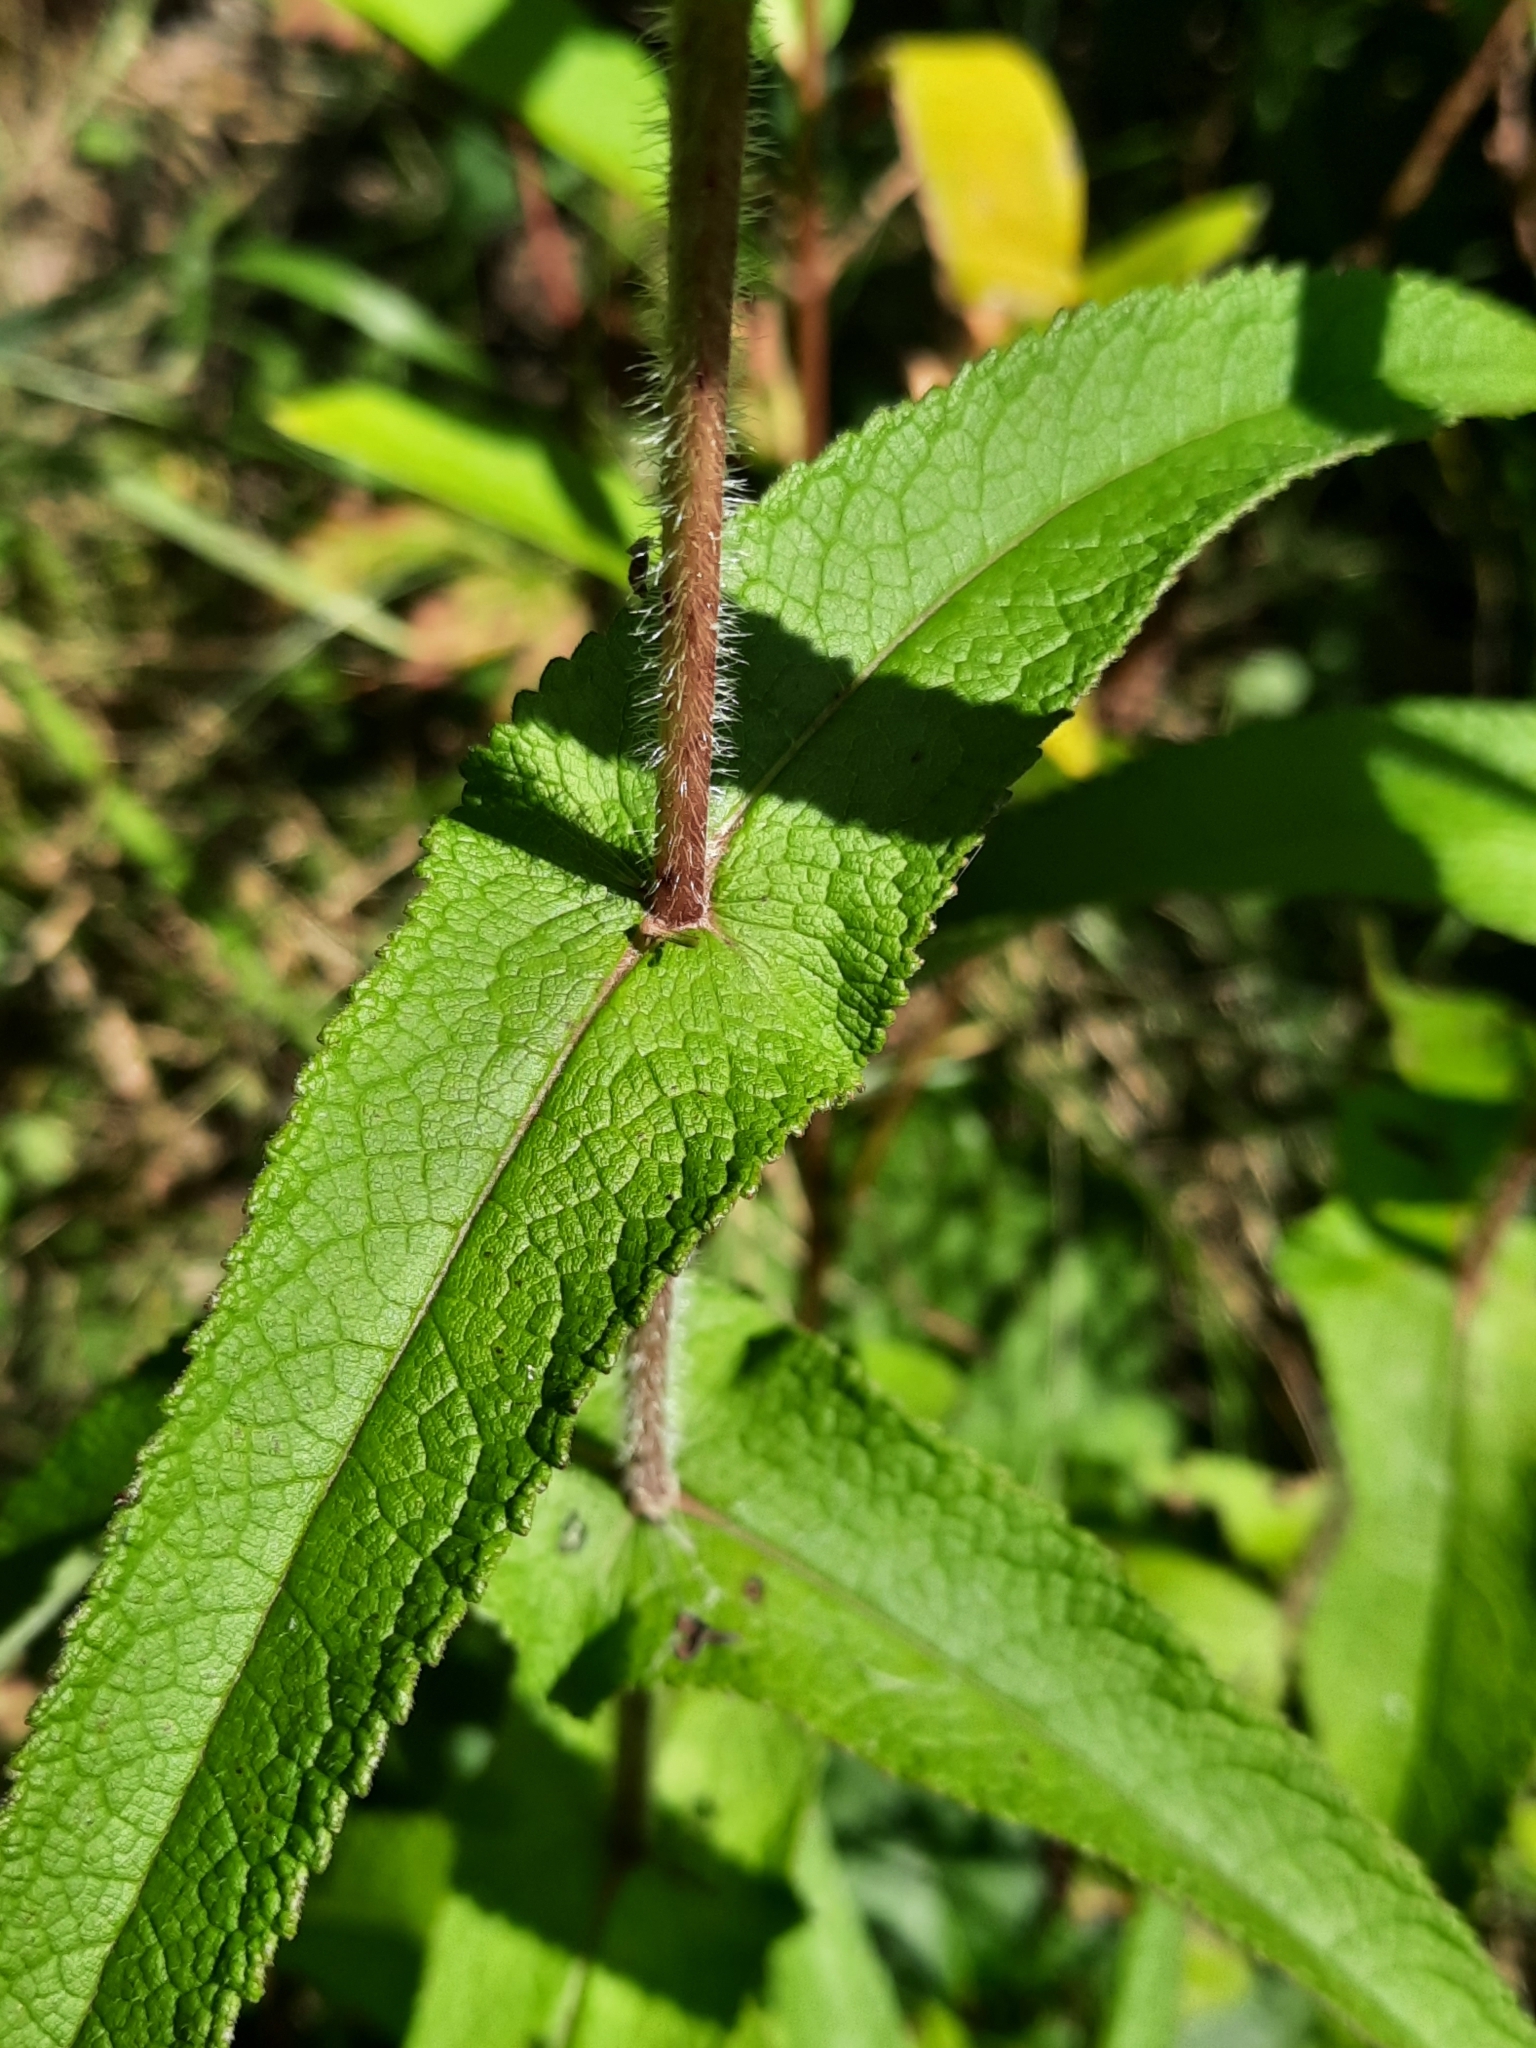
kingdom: Plantae
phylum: Tracheophyta
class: Magnoliopsida
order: Asterales
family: Asteraceae
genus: Eupatorium
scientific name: Eupatorium perfoliatum
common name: Boneset
